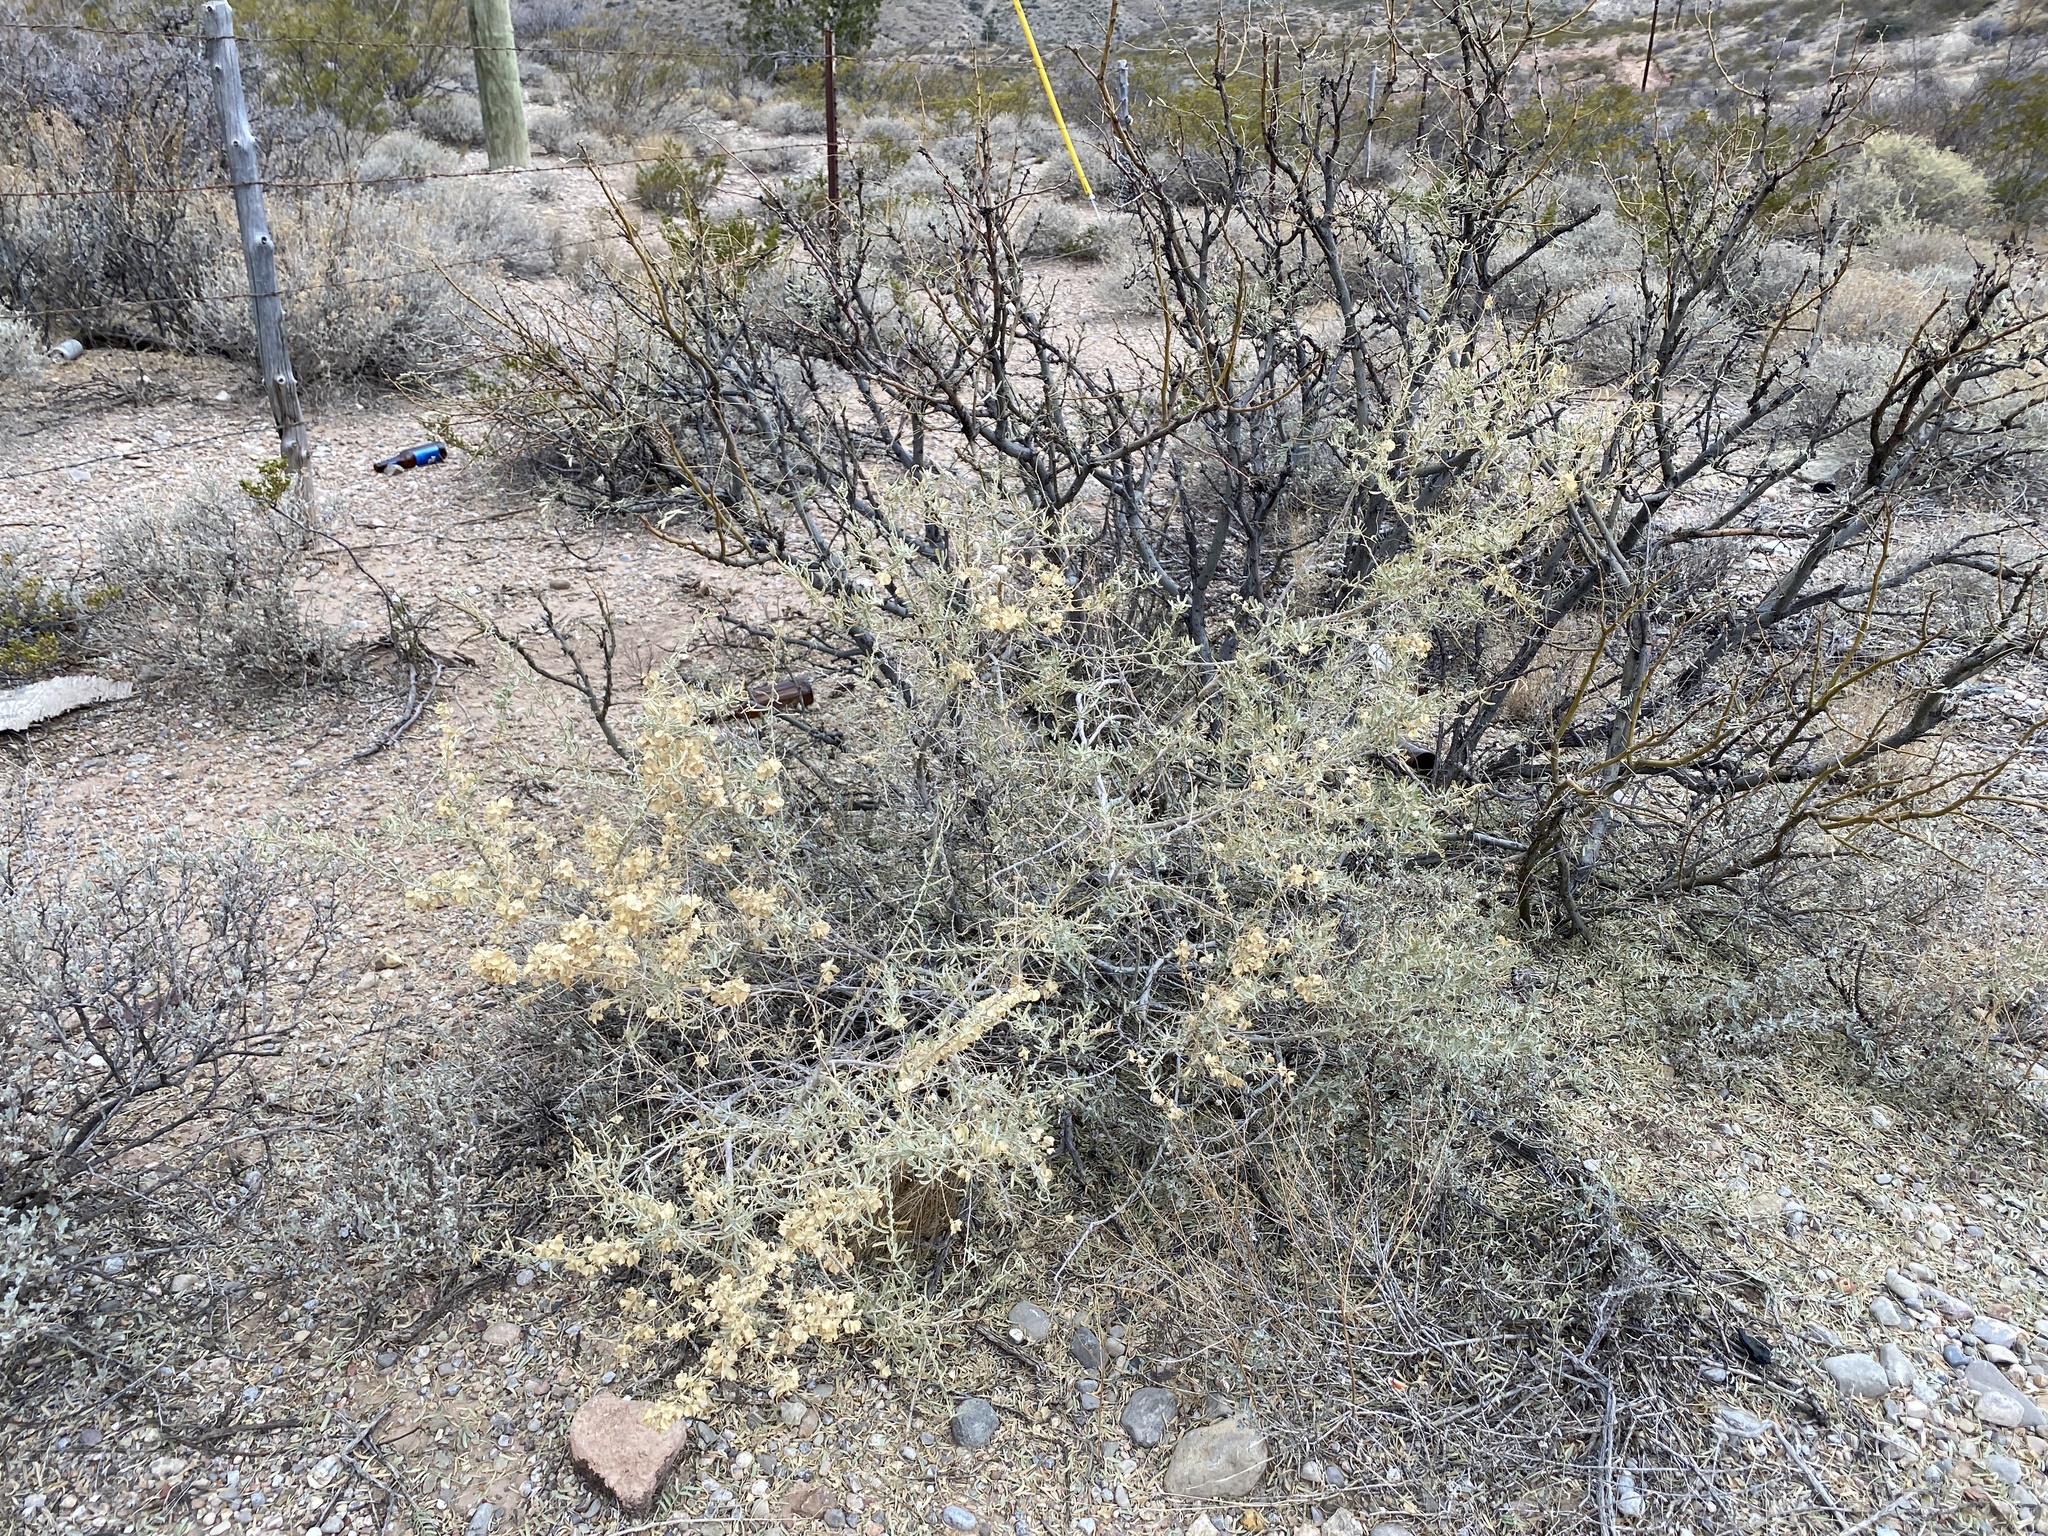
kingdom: Plantae
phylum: Tracheophyta
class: Magnoliopsida
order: Caryophyllales
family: Amaranthaceae
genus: Atriplex
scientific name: Atriplex canescens
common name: Four-wing saltbush
